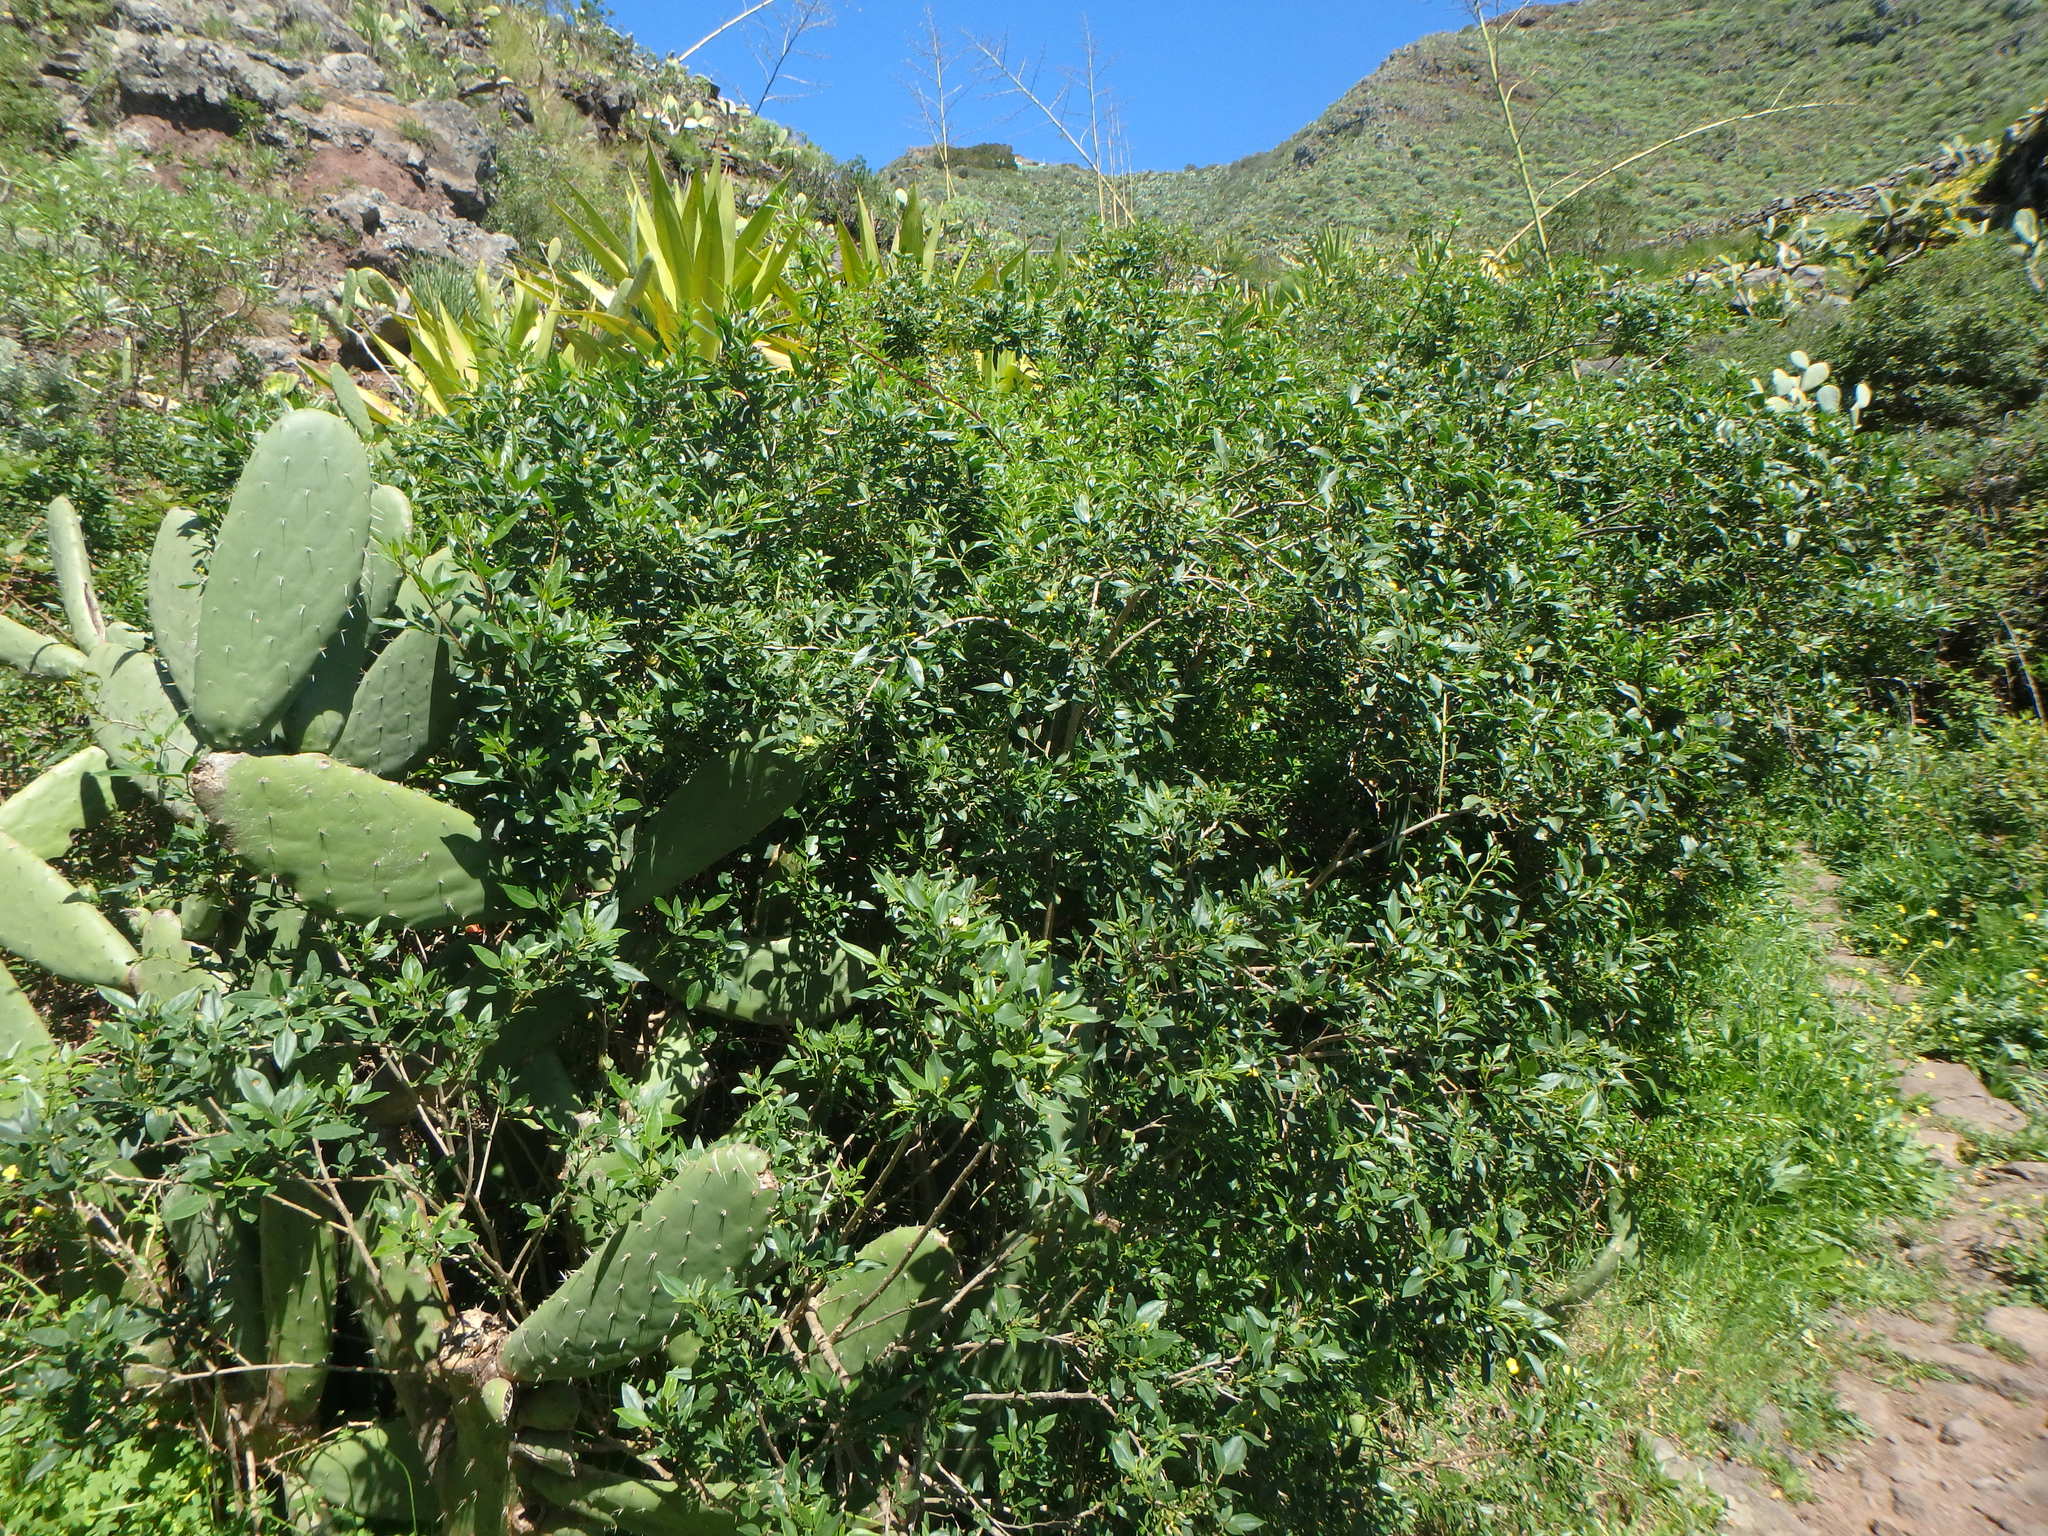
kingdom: Plantae
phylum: Tracheophyta
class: Magnoliopsida
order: Lamiales
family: Oleaceae
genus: Chrysojasminum
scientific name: Chrysojasminum odoratissimum
